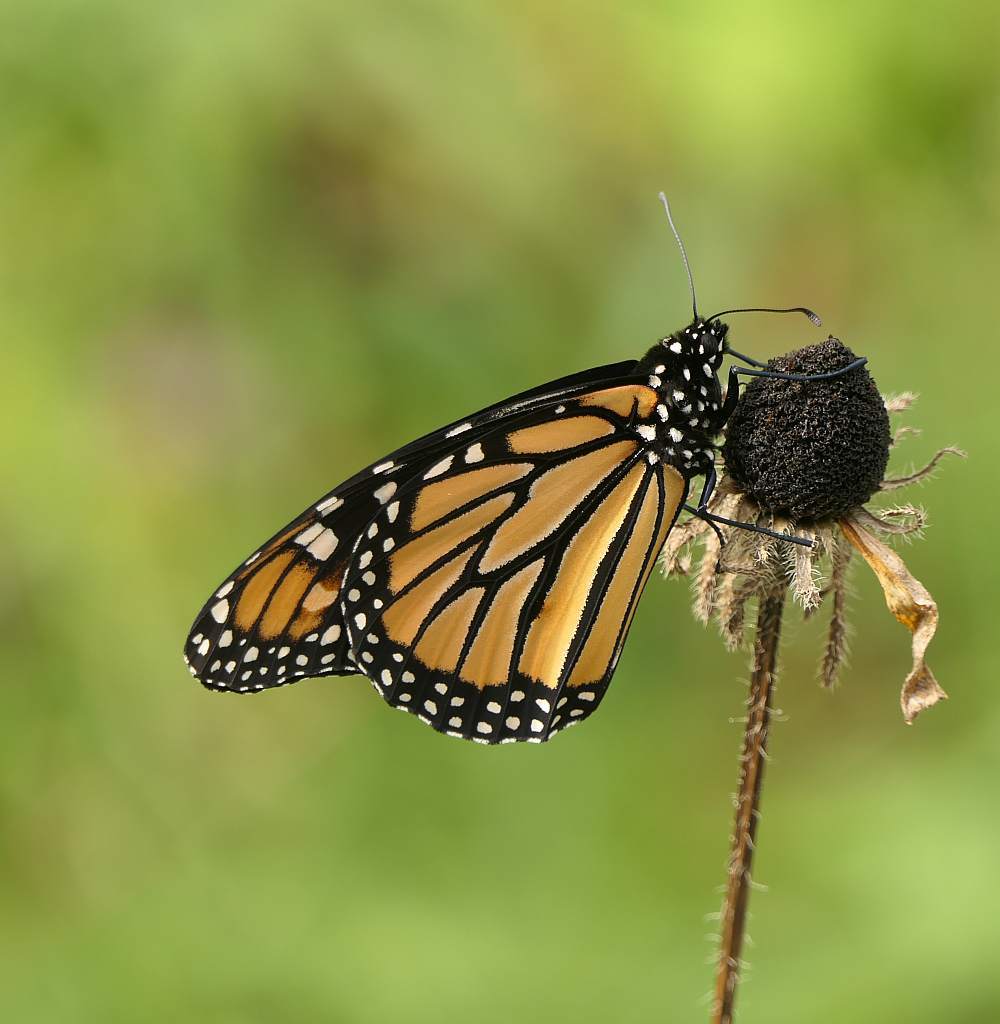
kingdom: Animalia
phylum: Arthropoda
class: Insecta
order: Lepidoptera
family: Nymphalidae
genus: Danaus
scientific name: Danaus plexippus
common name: Monarch
